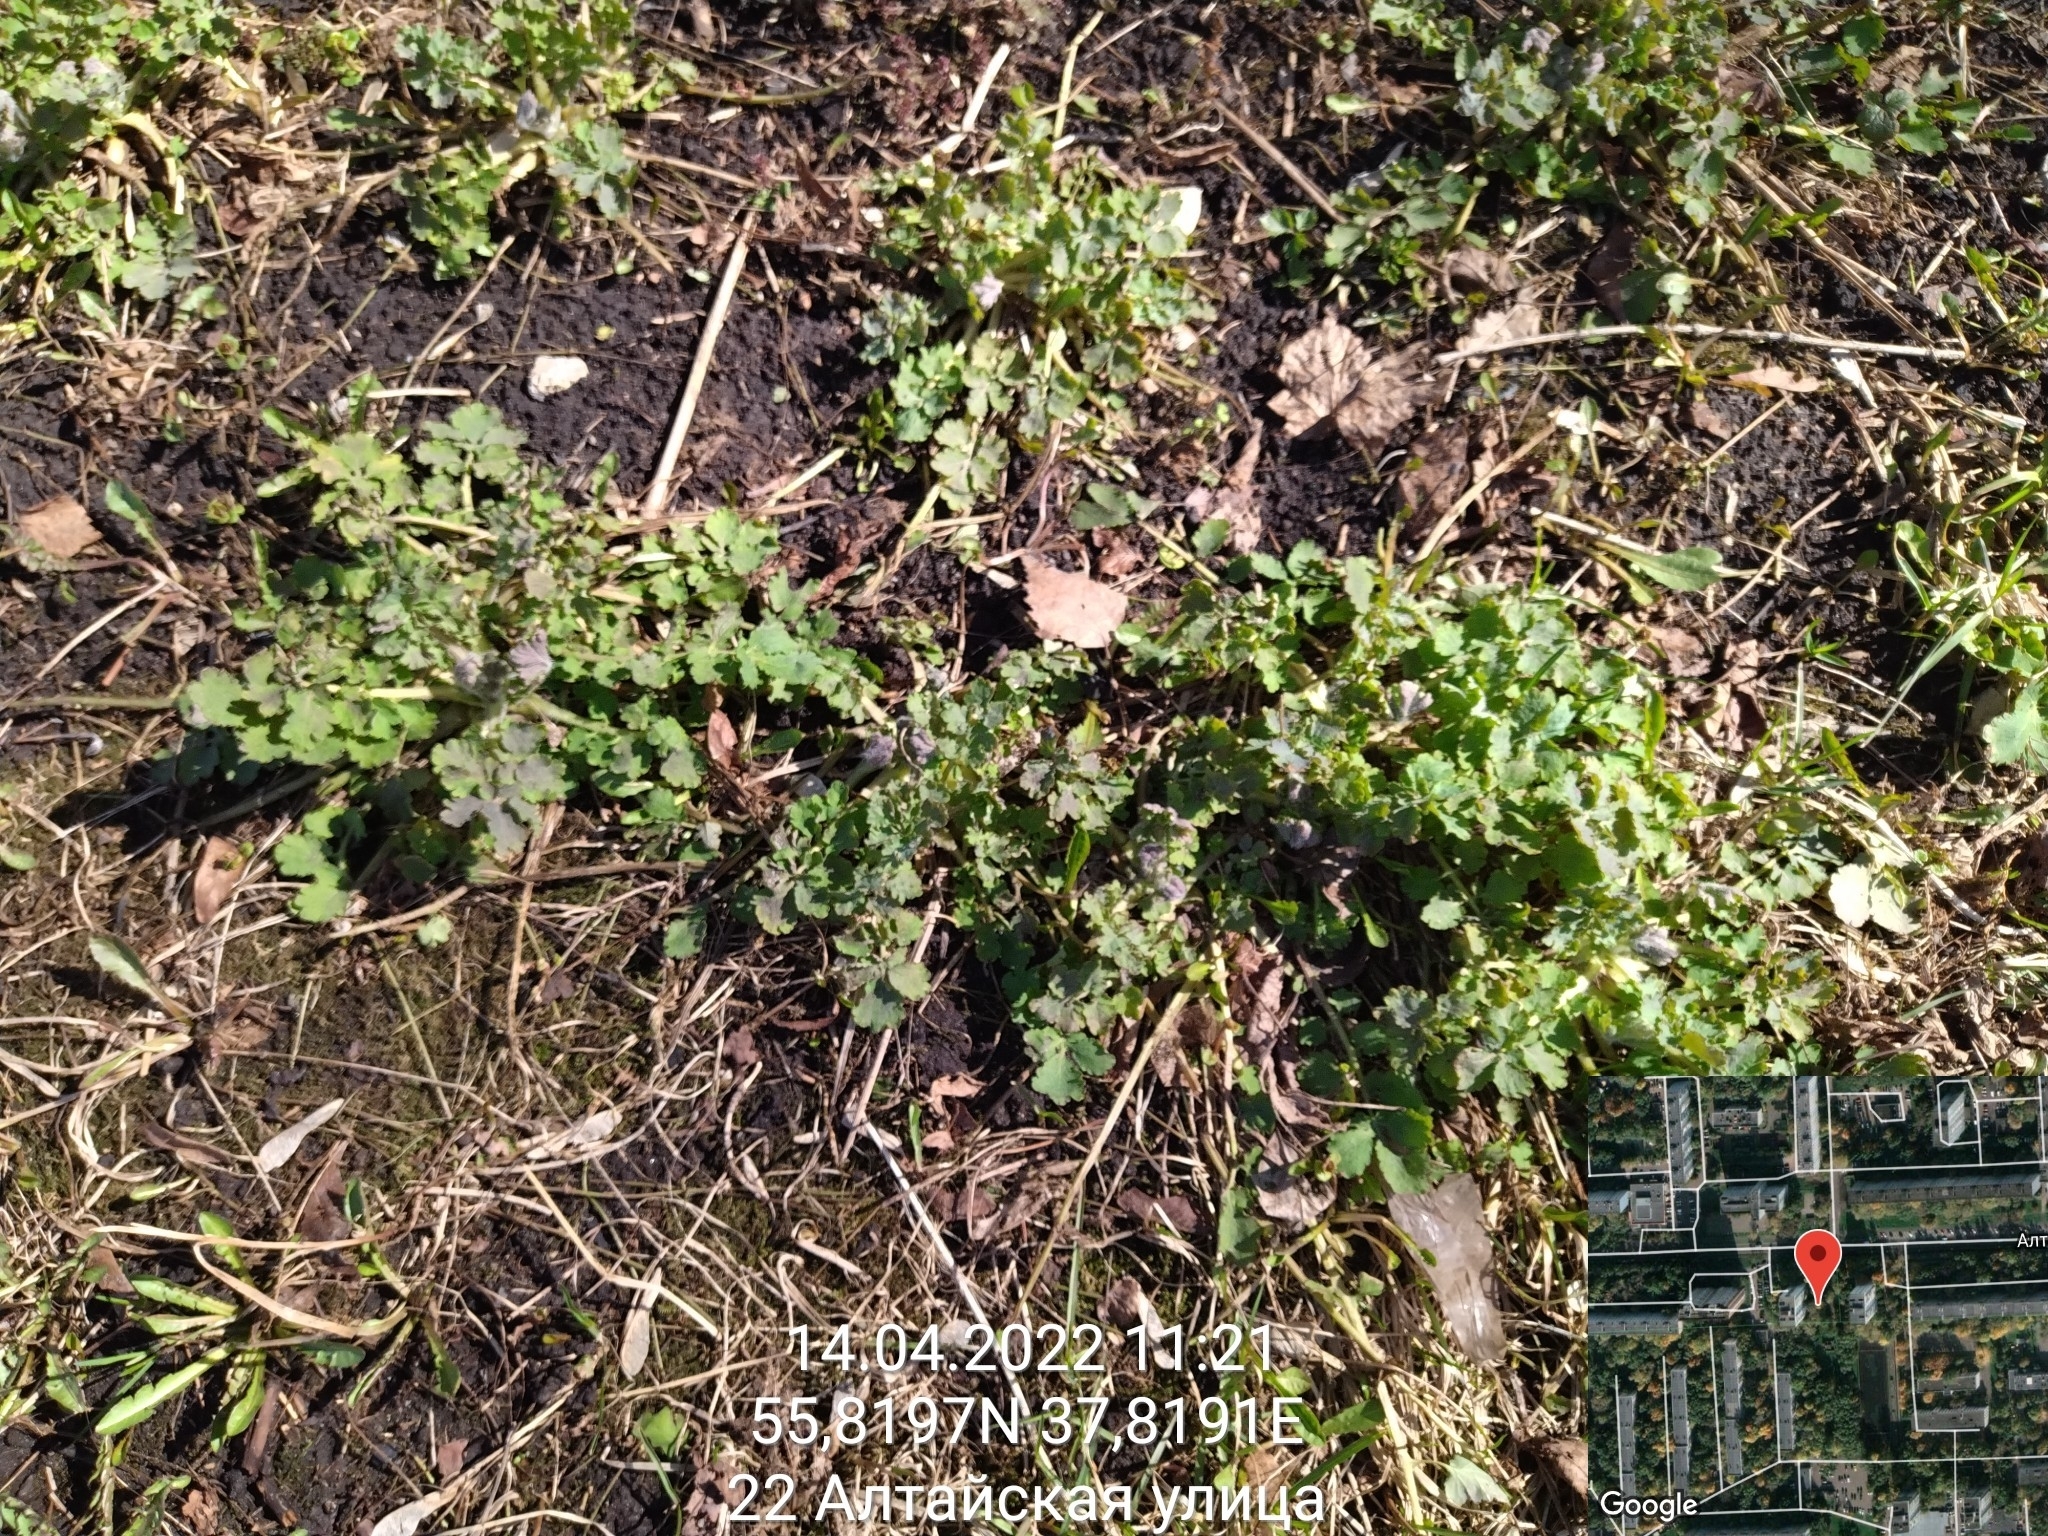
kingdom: Plantae
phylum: Tracheophyta
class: Magnoliopsida
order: Ranunculales
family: Papaveraceae
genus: Chelidonium
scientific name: Chelidonium majus
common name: Greater celandine
